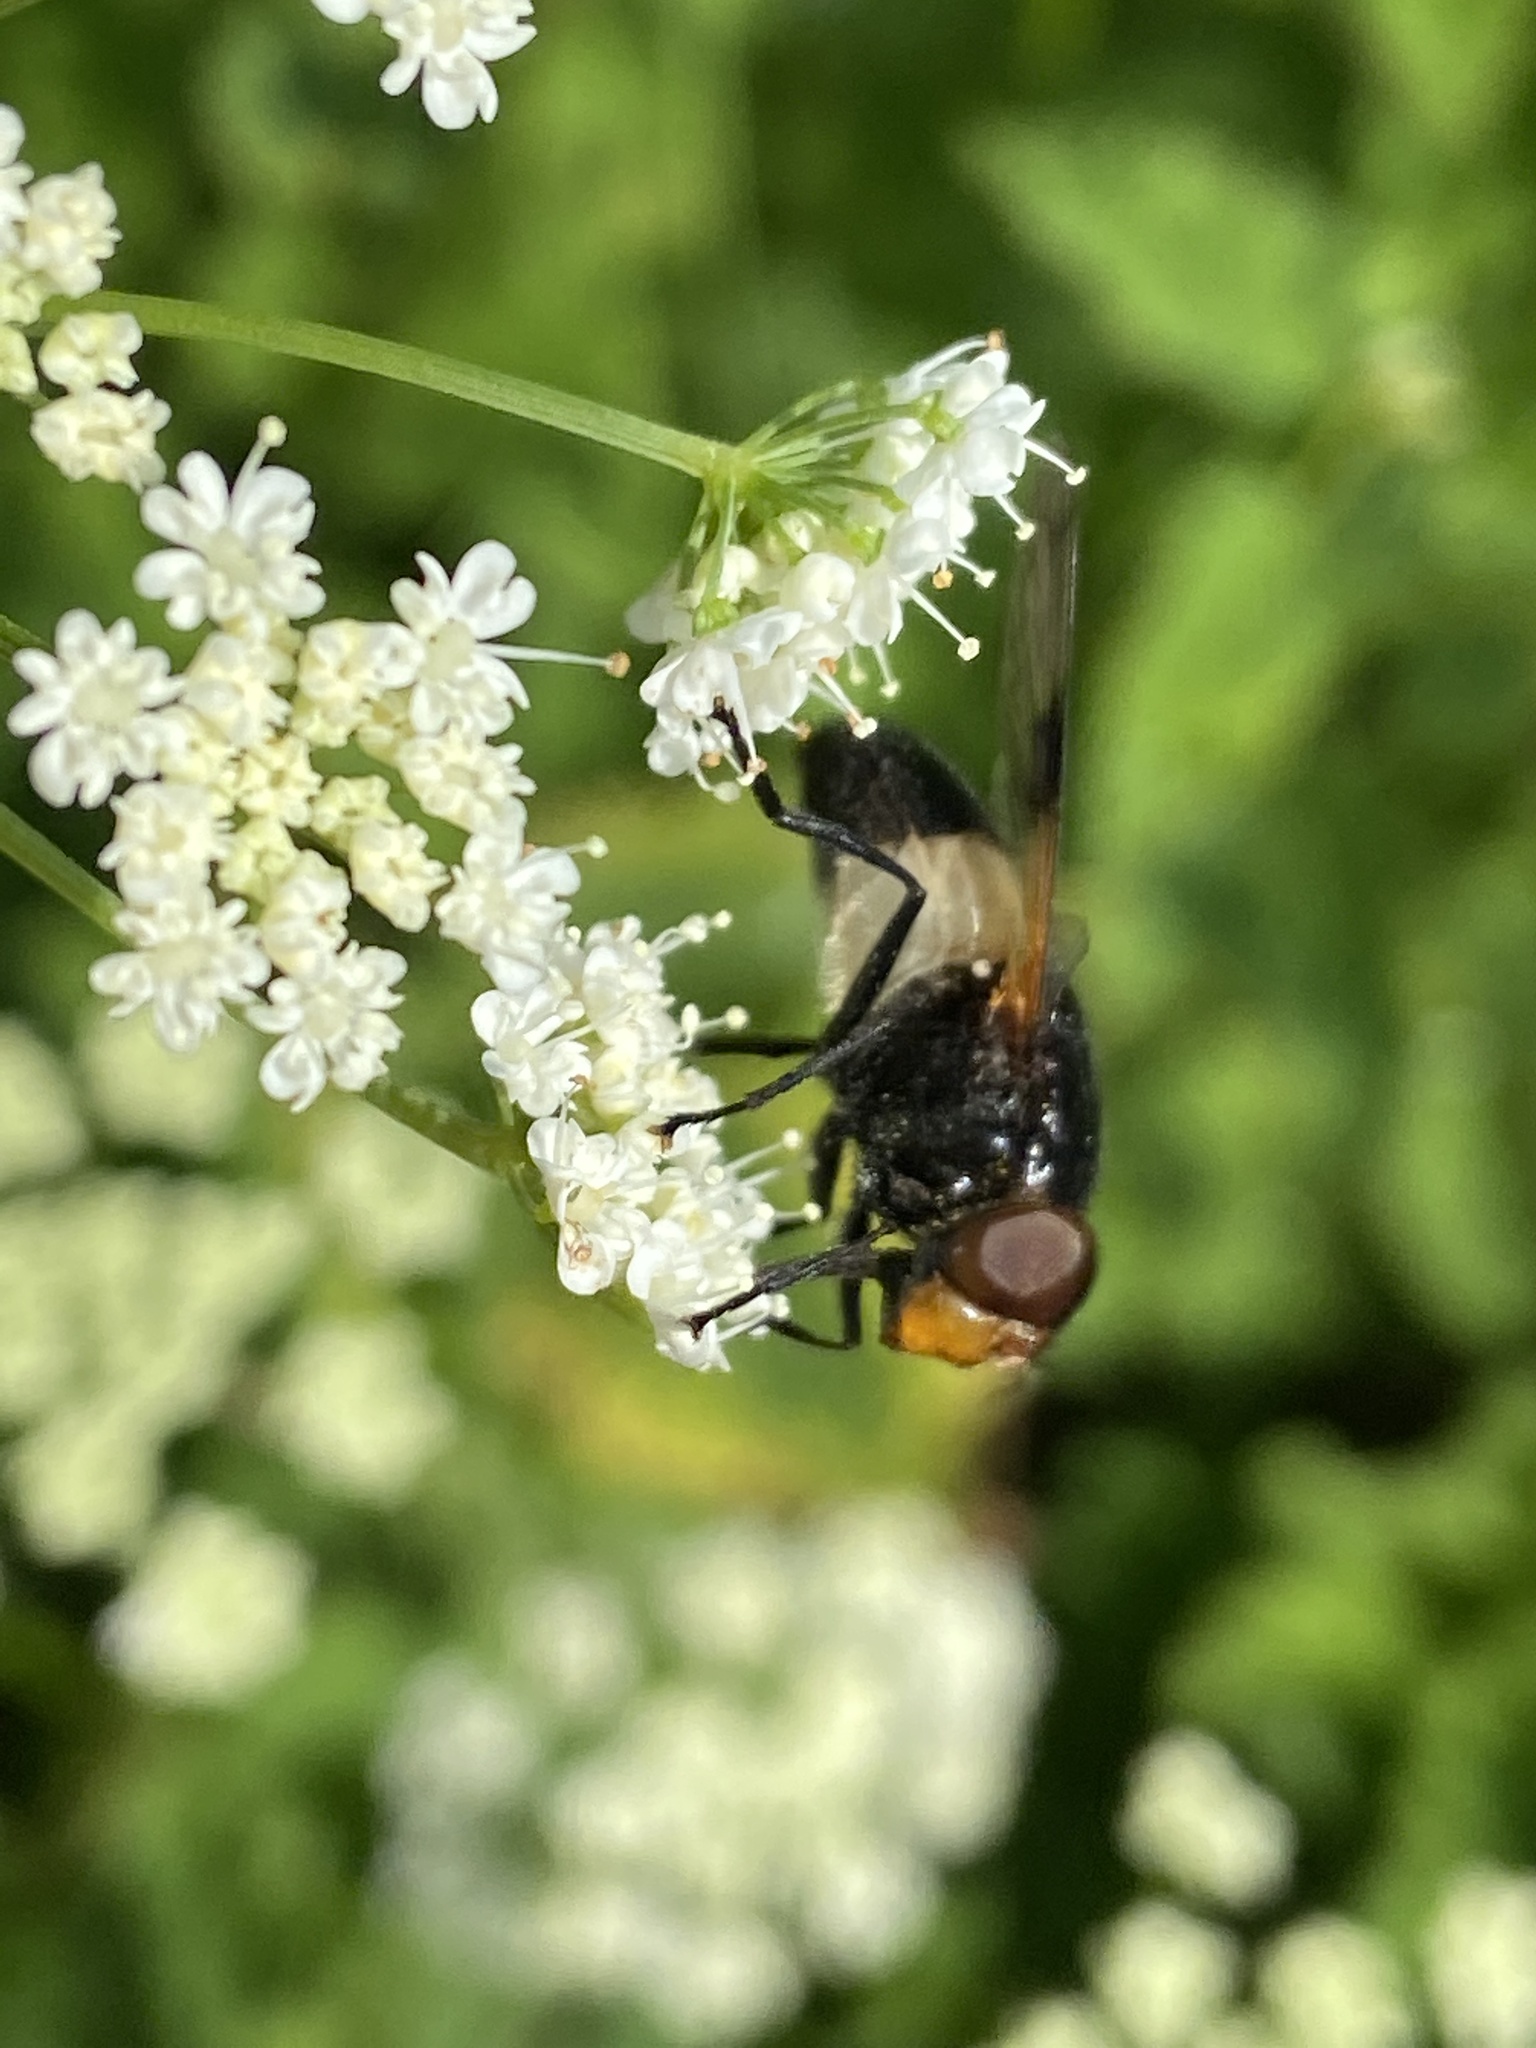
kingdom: Animalia
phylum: Arthropoda
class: Insecta
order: Diptera
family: Syrphidae
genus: Volucella
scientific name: Volucella pellucens
